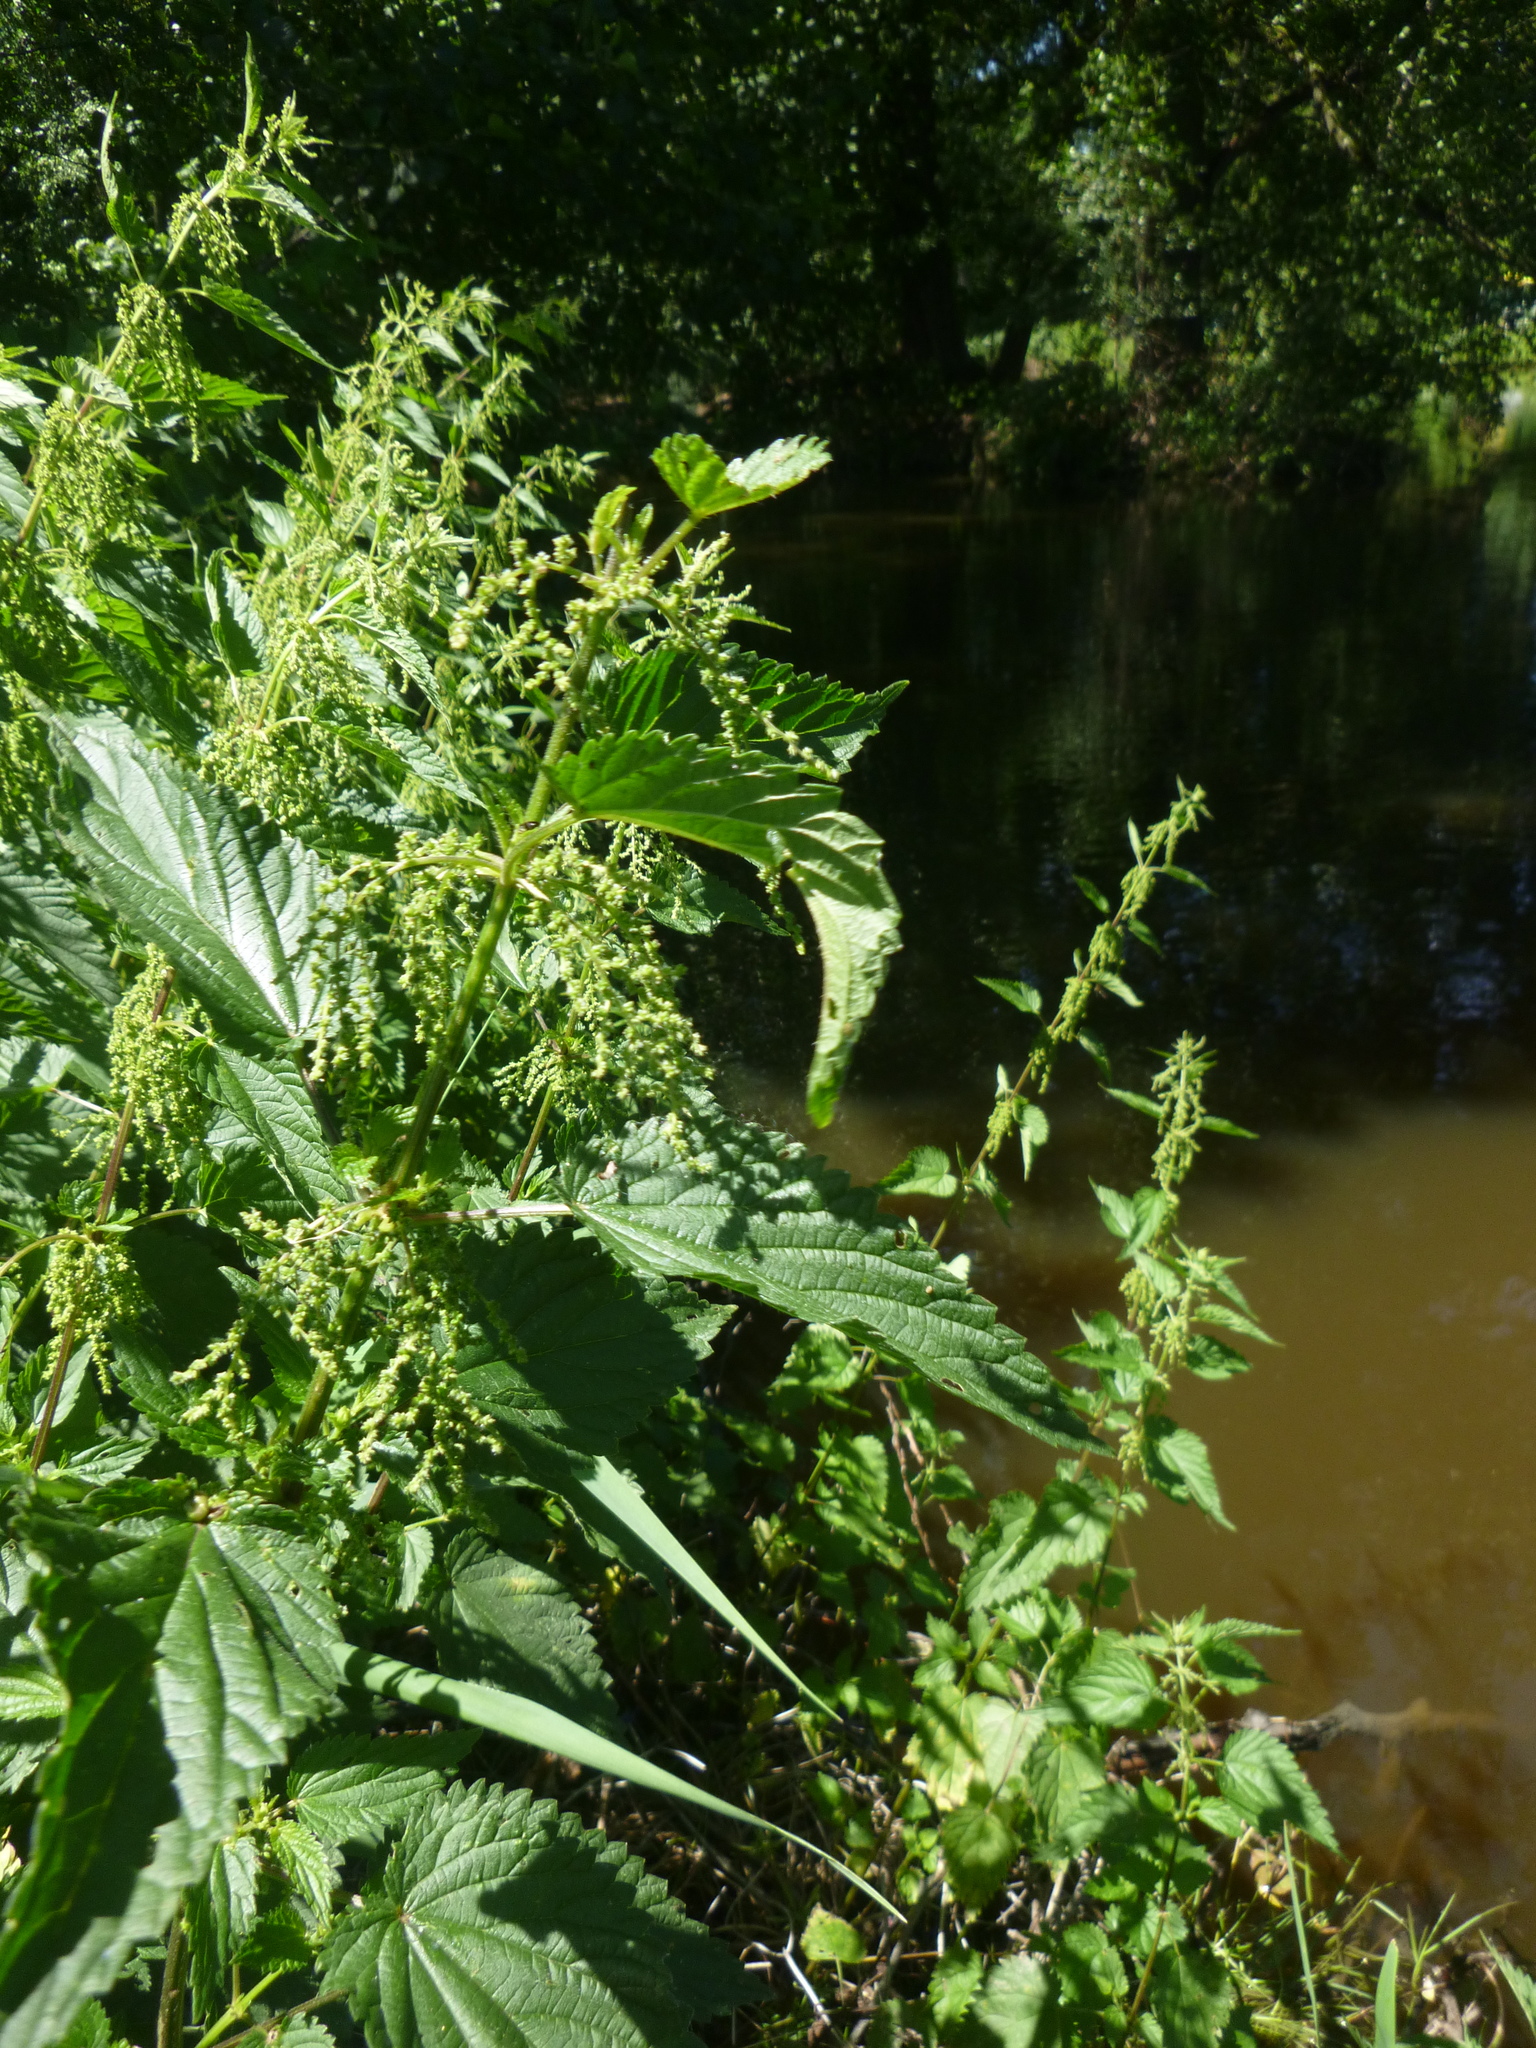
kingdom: Plantae
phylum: Tracheophyta
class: Magnoliopsida
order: Rosales
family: Urticaceae
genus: Urtica
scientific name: Urtica dioica
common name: Common nettle
